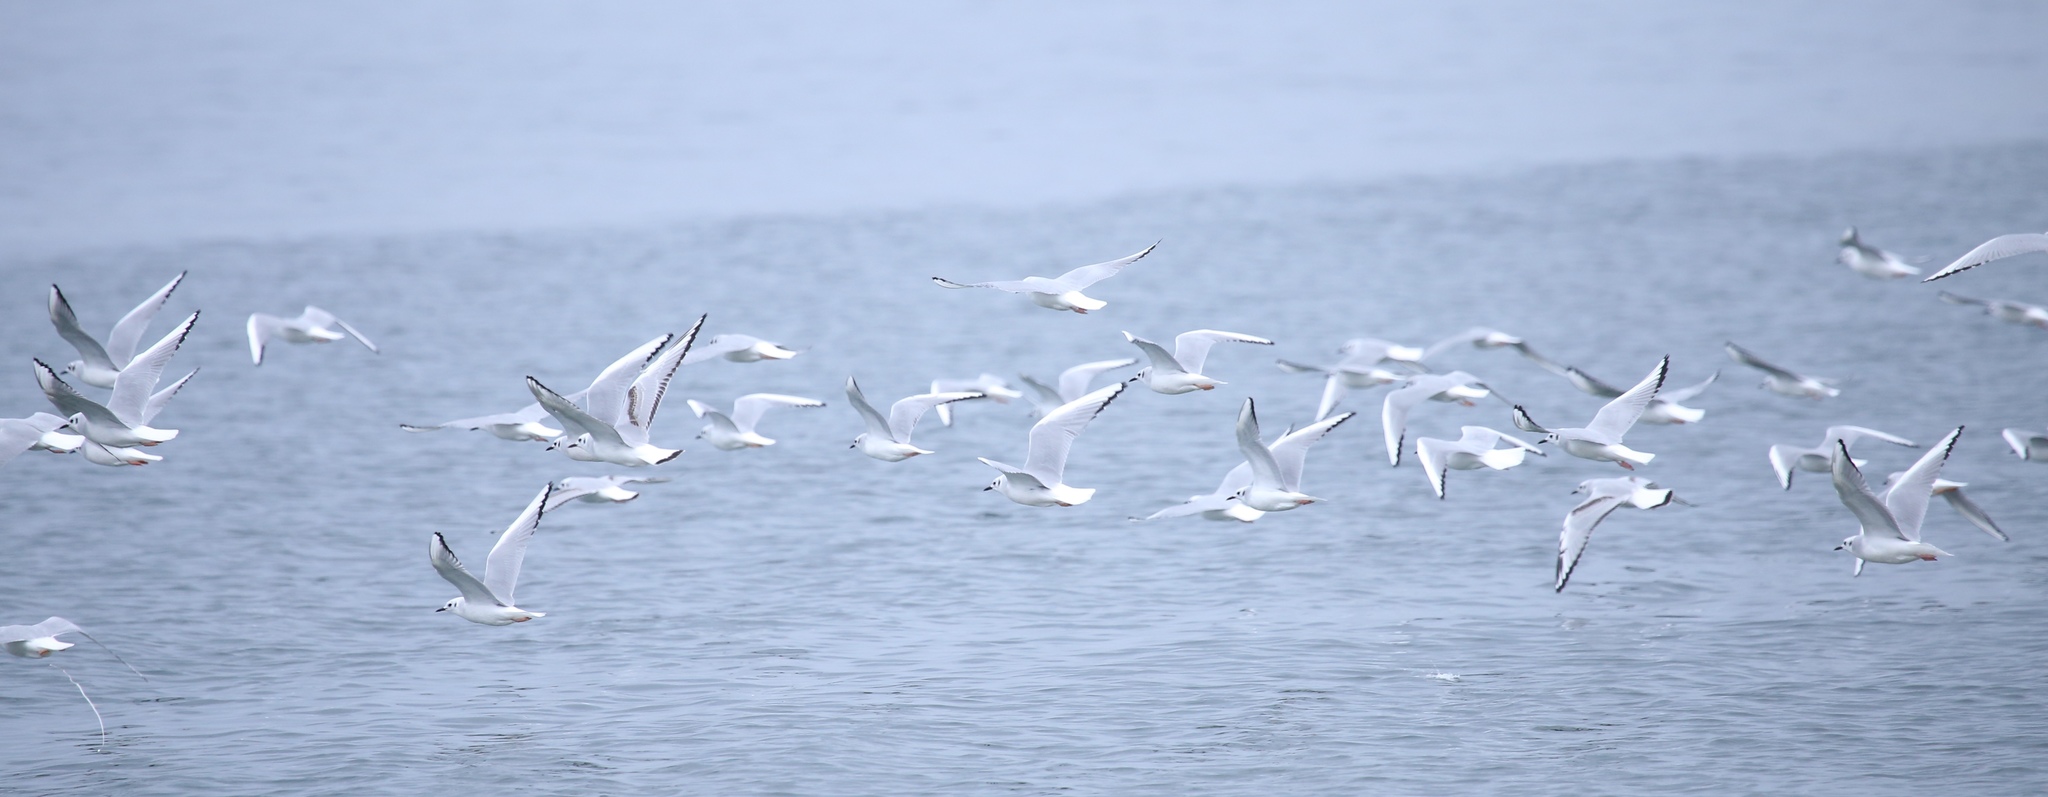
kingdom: Animalia
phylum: Chordata
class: Aves
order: Charadriiformes
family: Laridae
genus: Chroicocephalus
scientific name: Chroicocephalus philadelphia
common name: Bonaparte's gull
